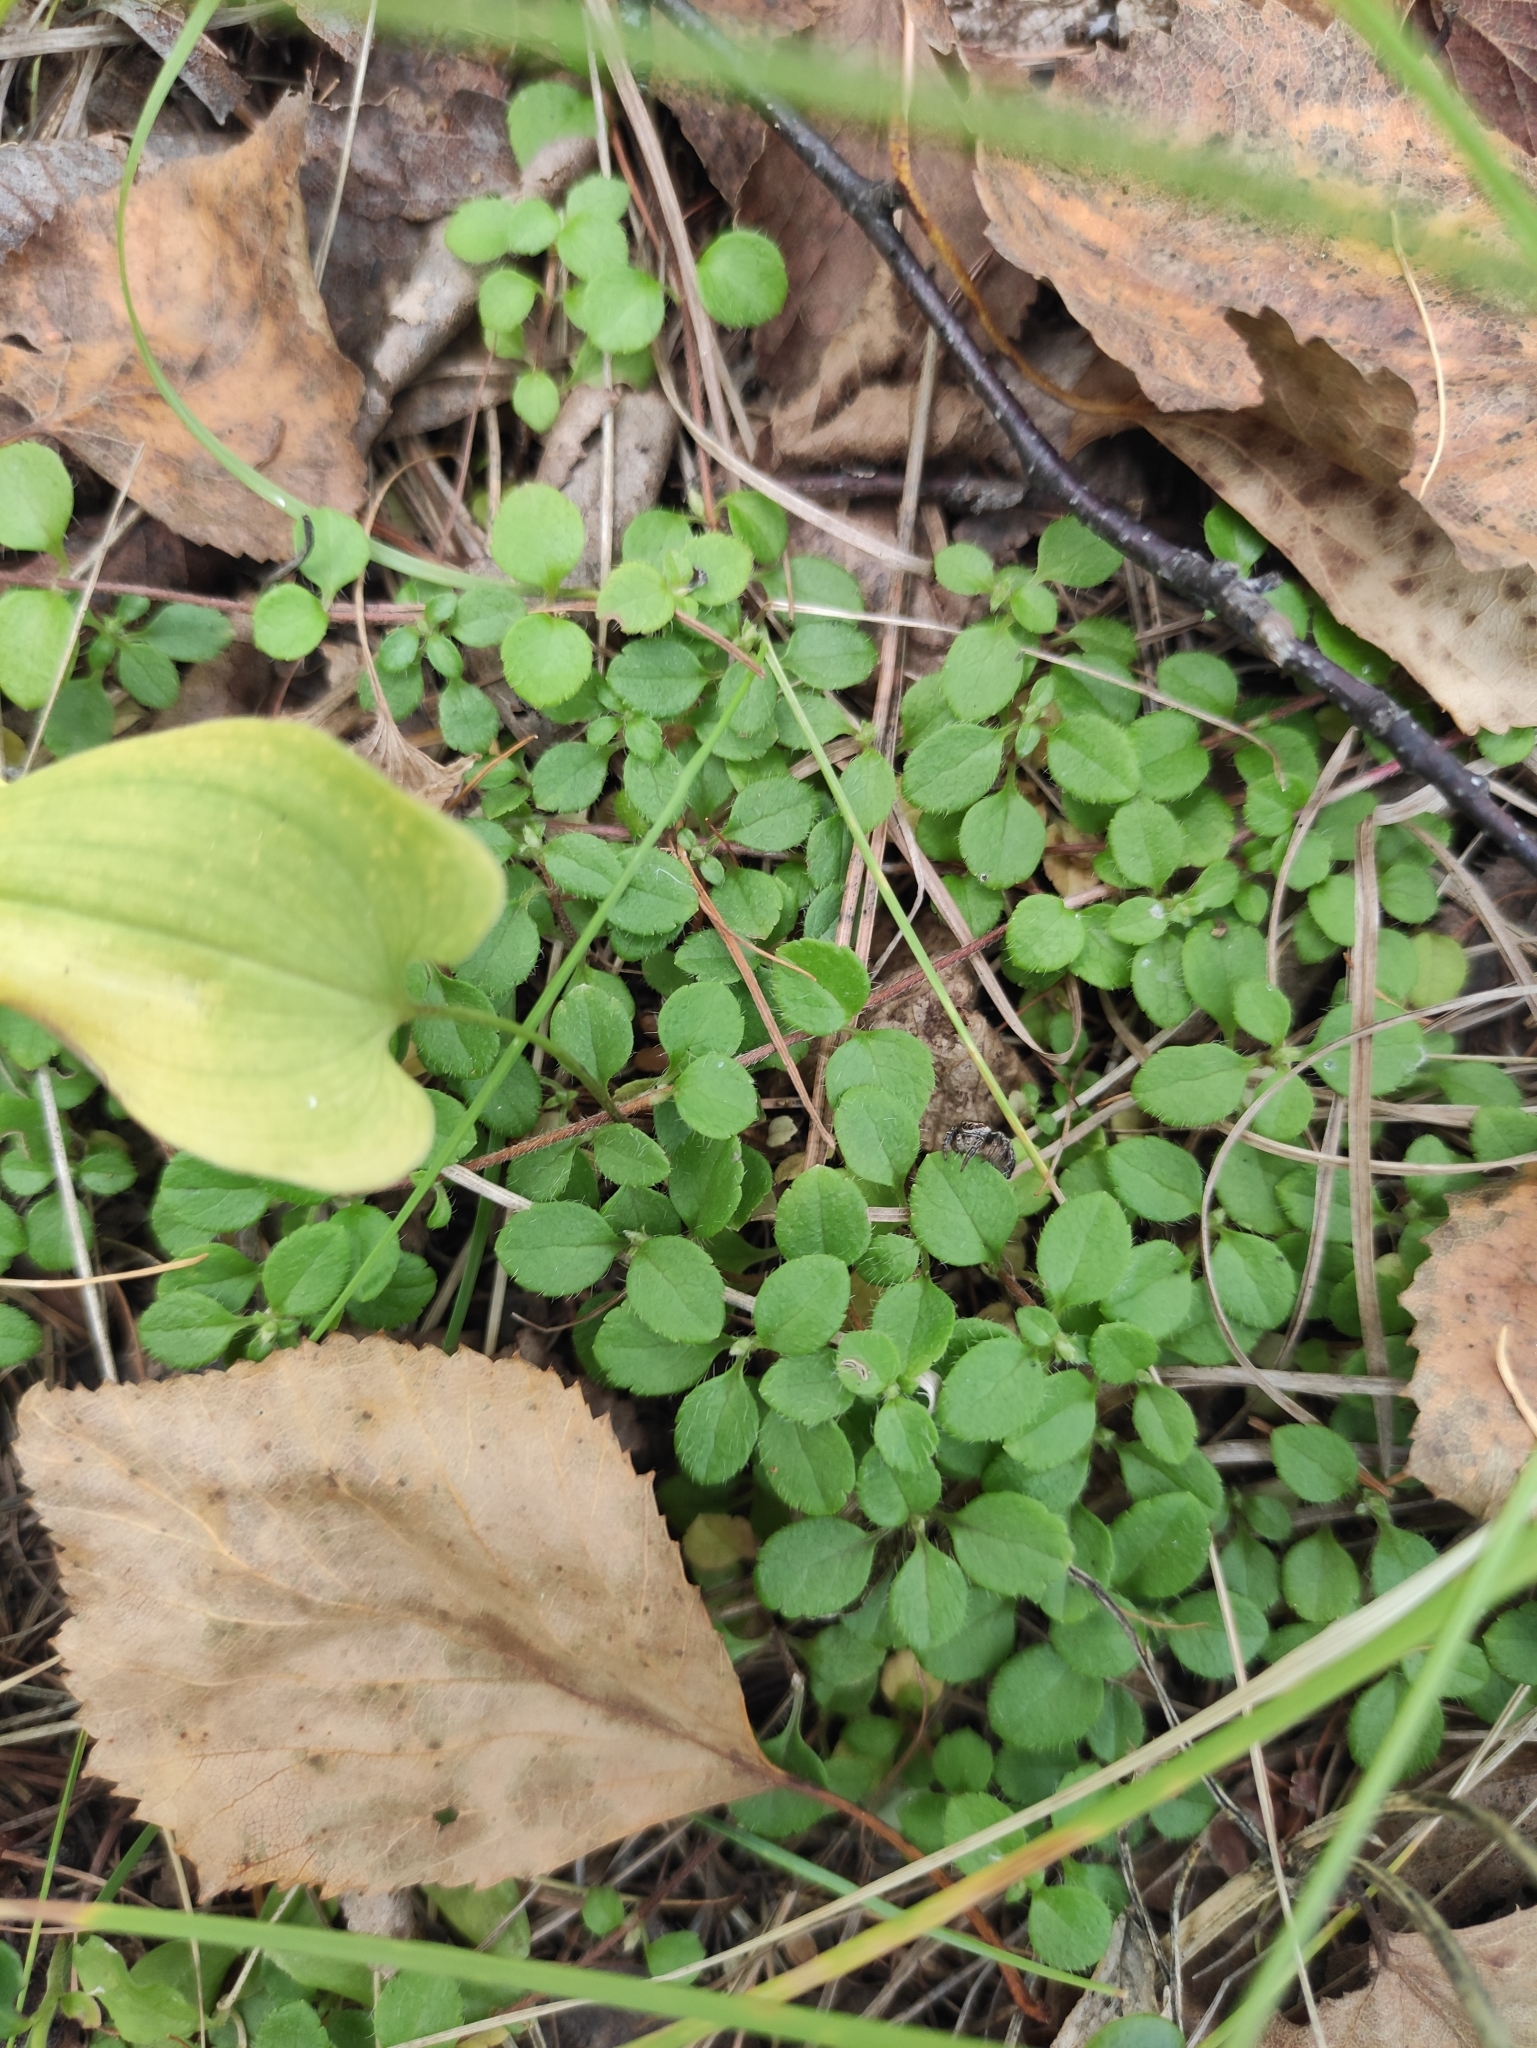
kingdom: Plantae
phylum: Tracheophyta
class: Magnoliopsida
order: Dipsacales
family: Caprifoliaceae
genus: Linnaea
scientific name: Linnaea borealis
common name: Twinflower
